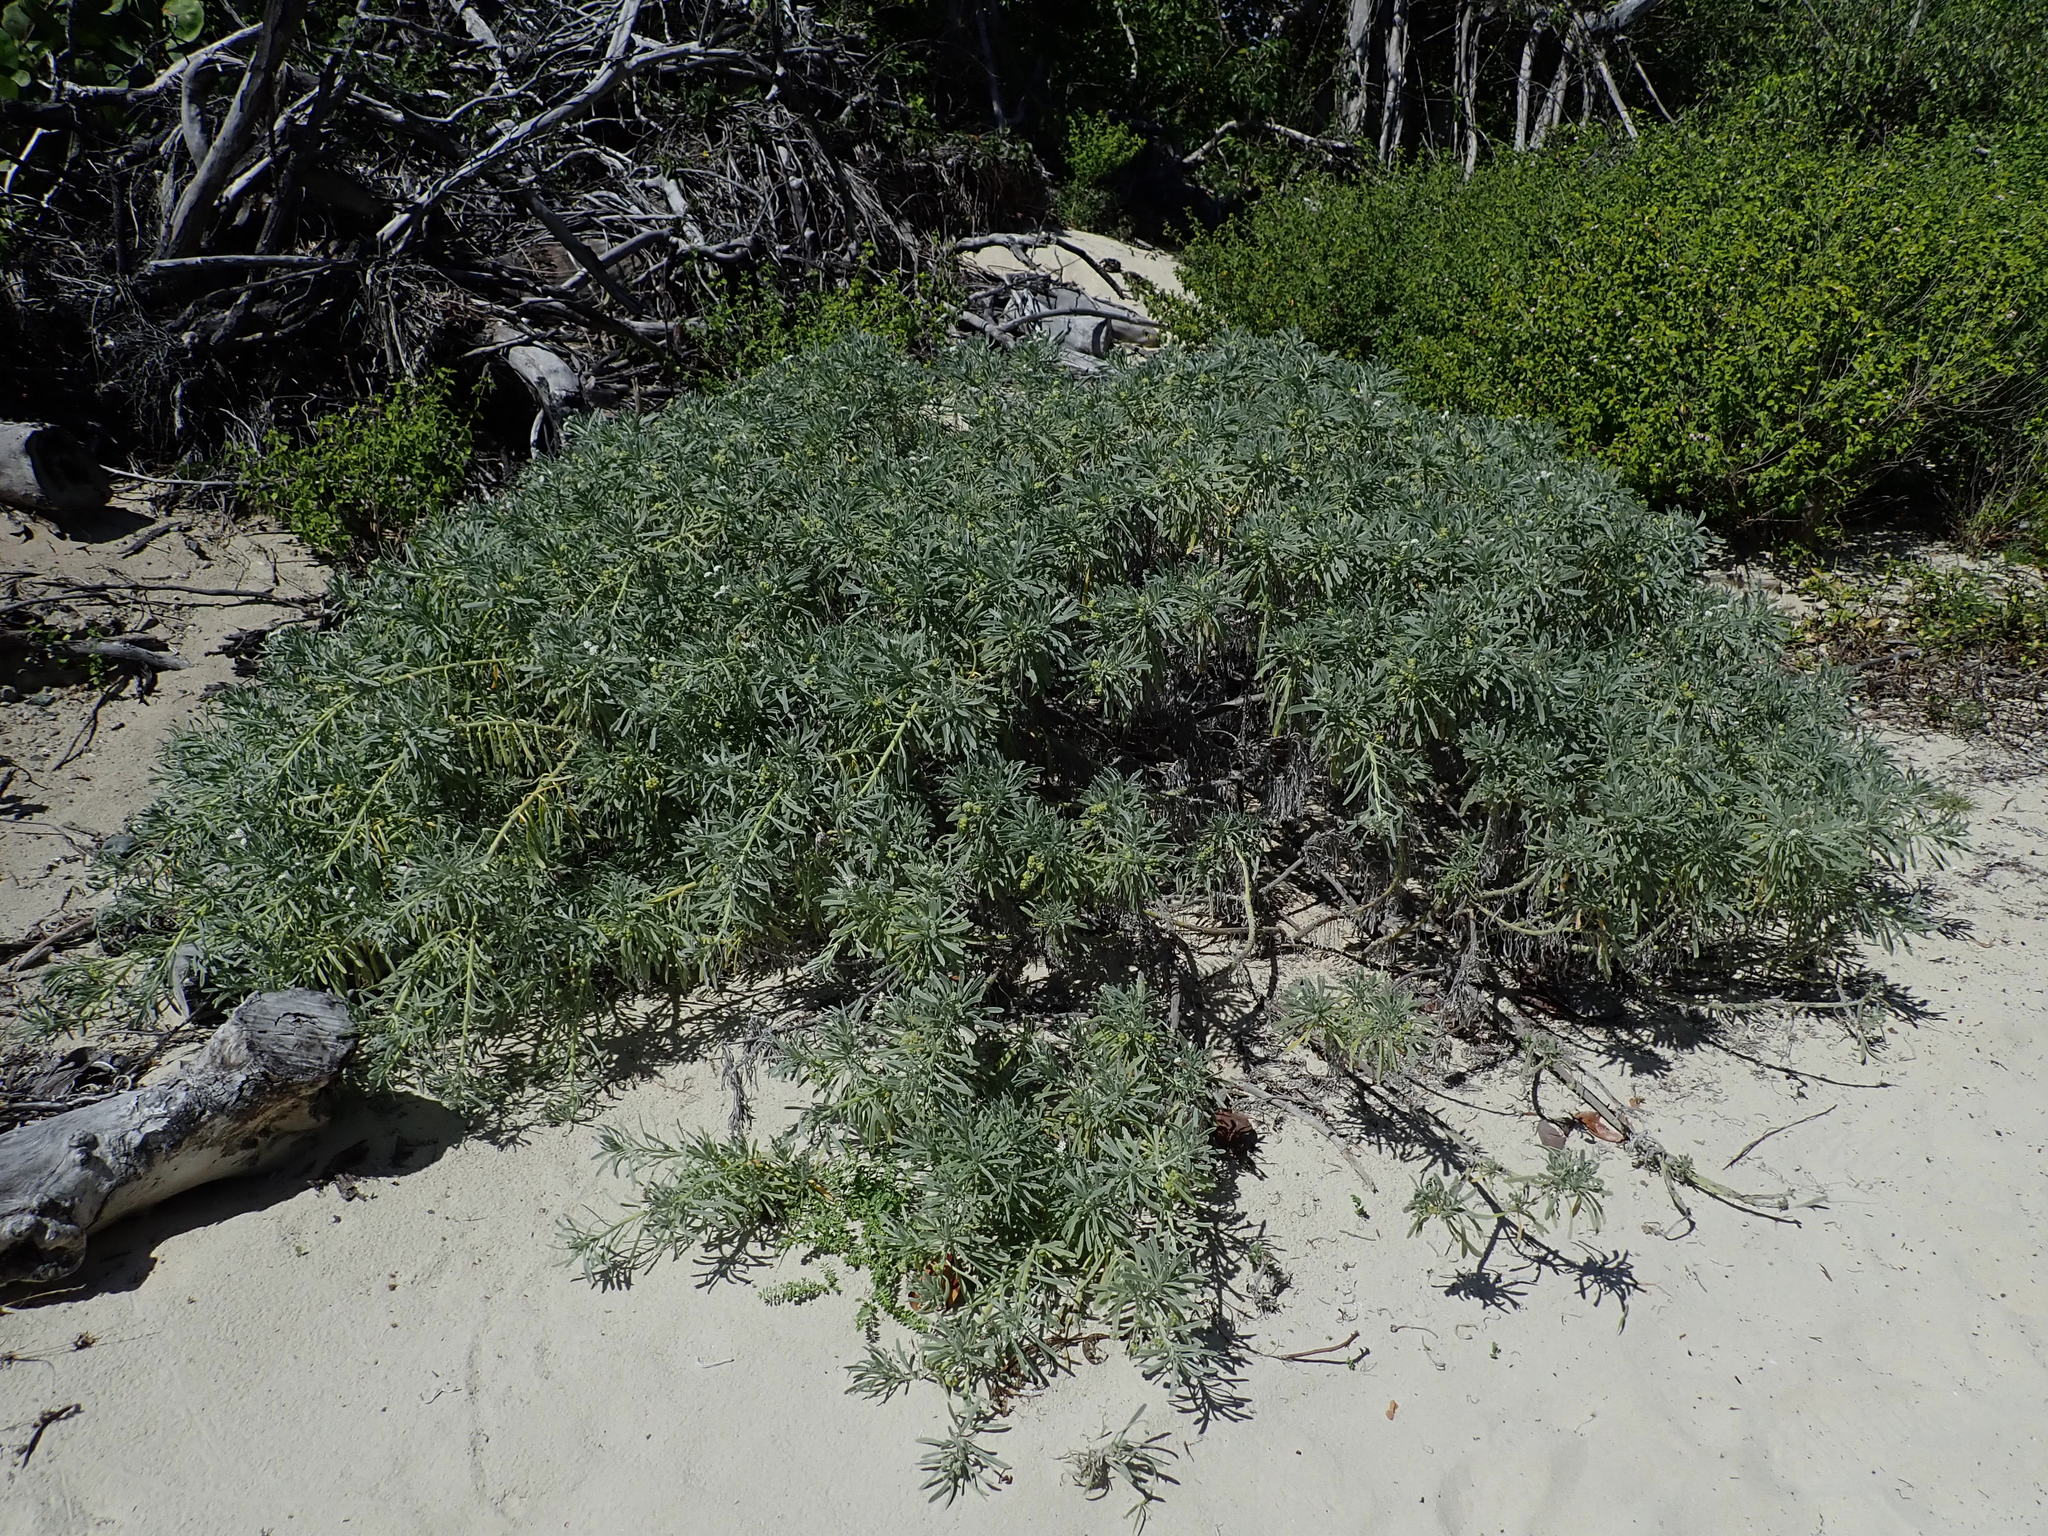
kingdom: Plantae
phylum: Tracheophyta
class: Magnoliopsida
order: Boraginales
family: Heliotropiaceae
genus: Tournefortia
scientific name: Tournefortia gnaphalodes
